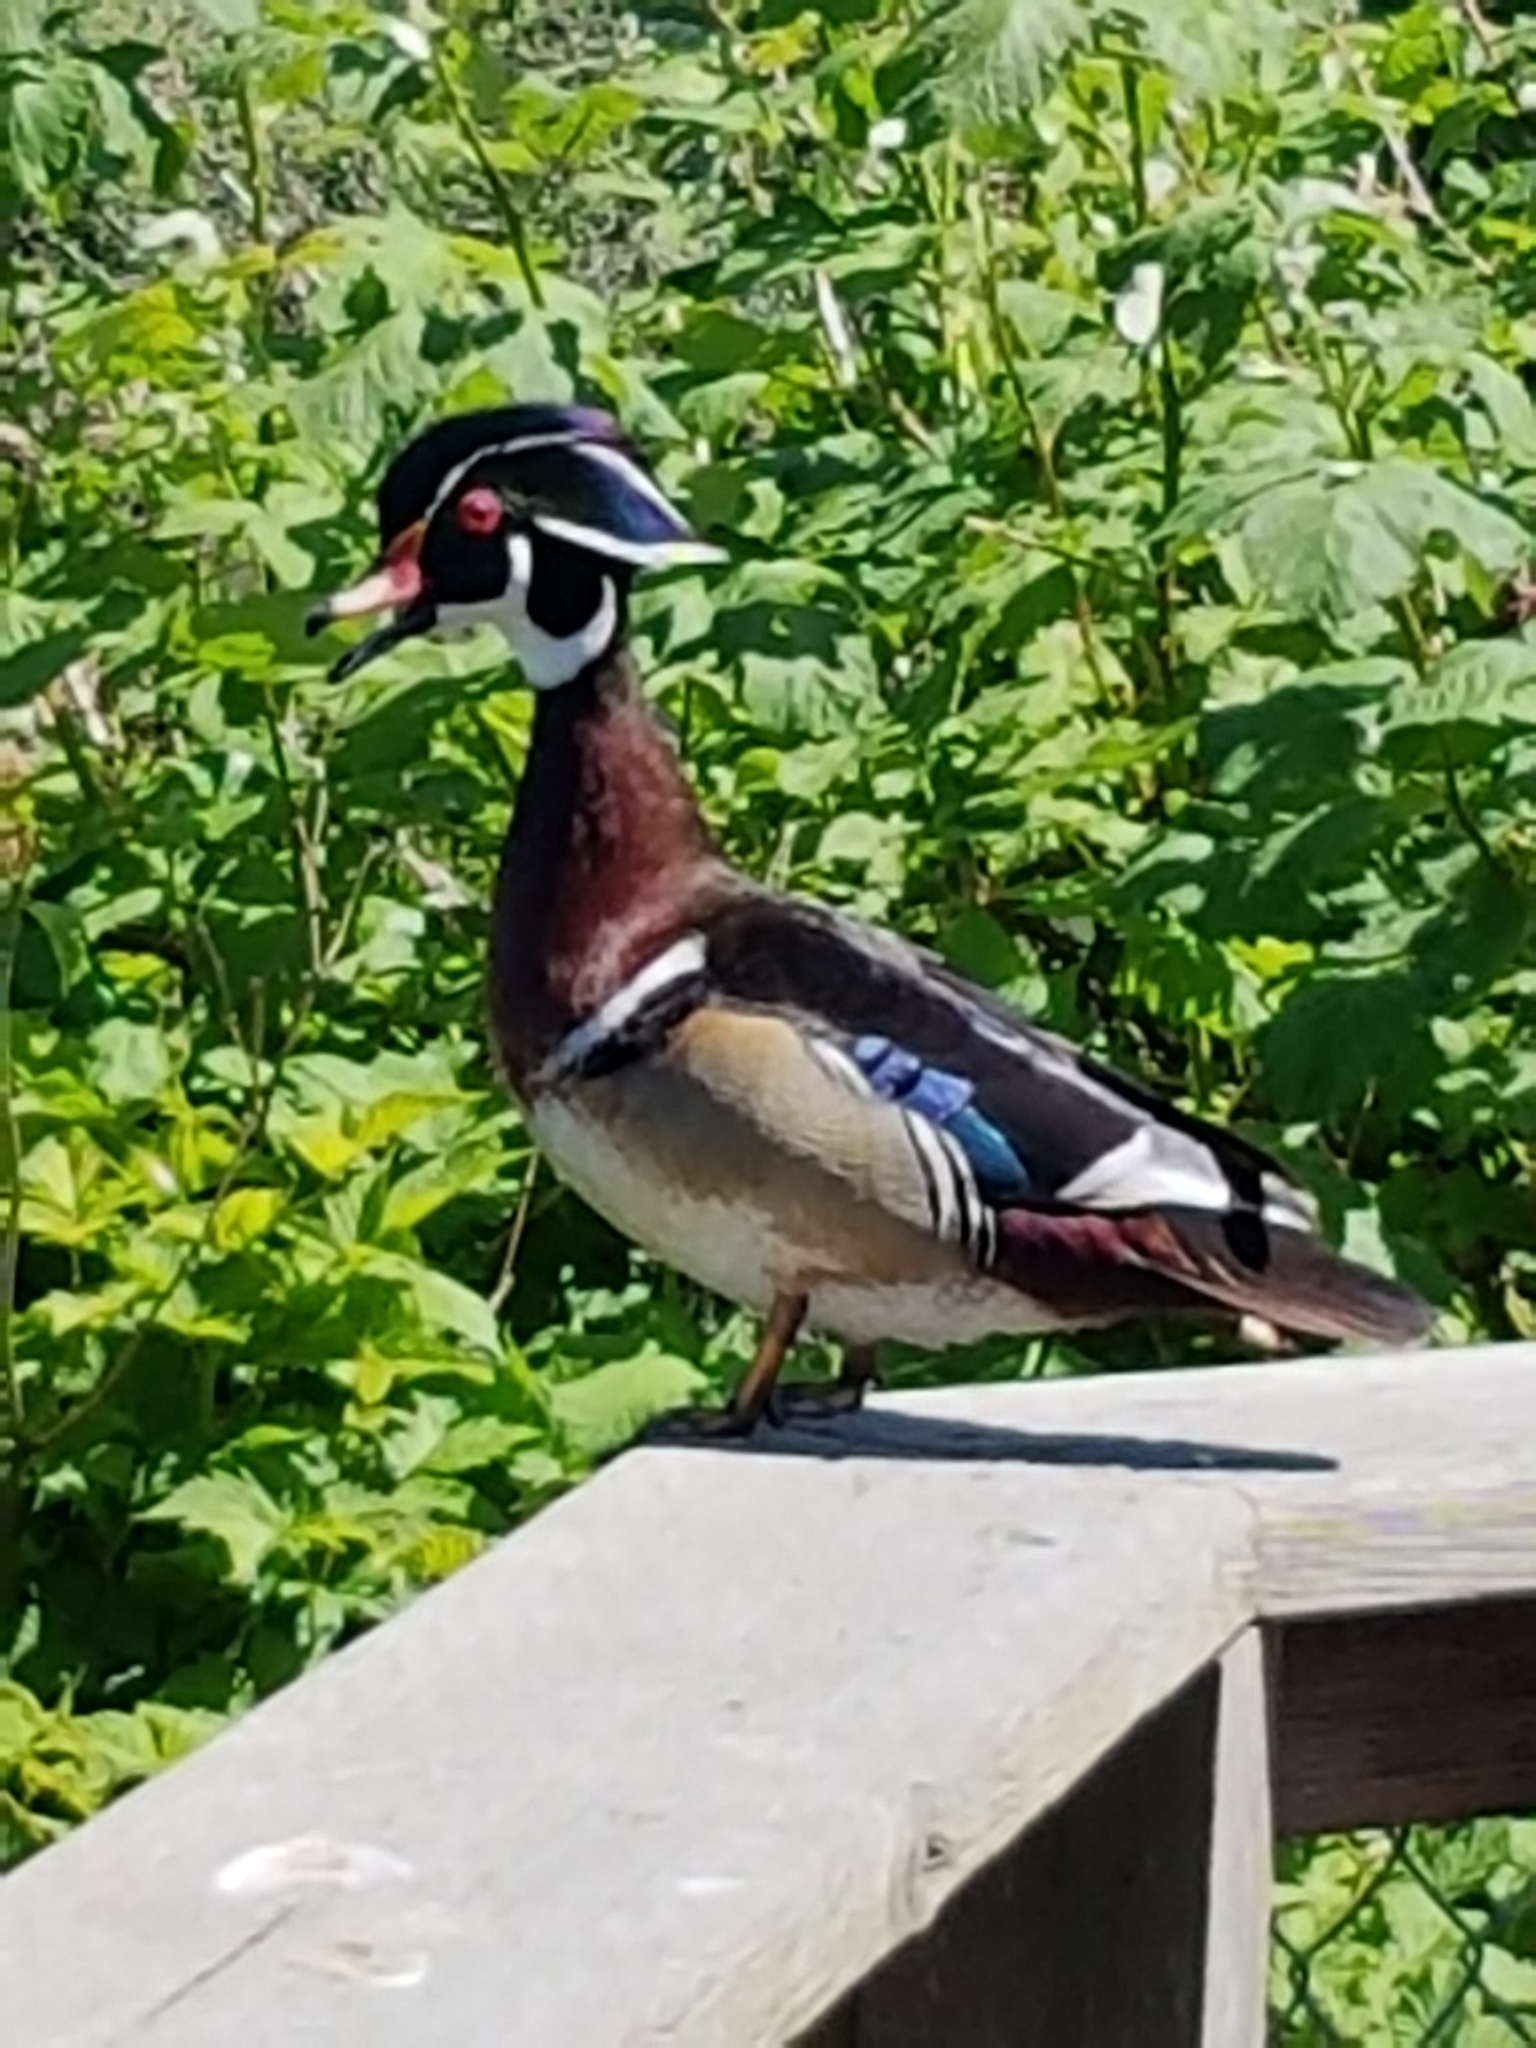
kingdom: Animalia
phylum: Chordata
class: Aves
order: Anseriformes
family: Anatidae
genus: Aix
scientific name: Aix sponsa
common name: Wood duck
